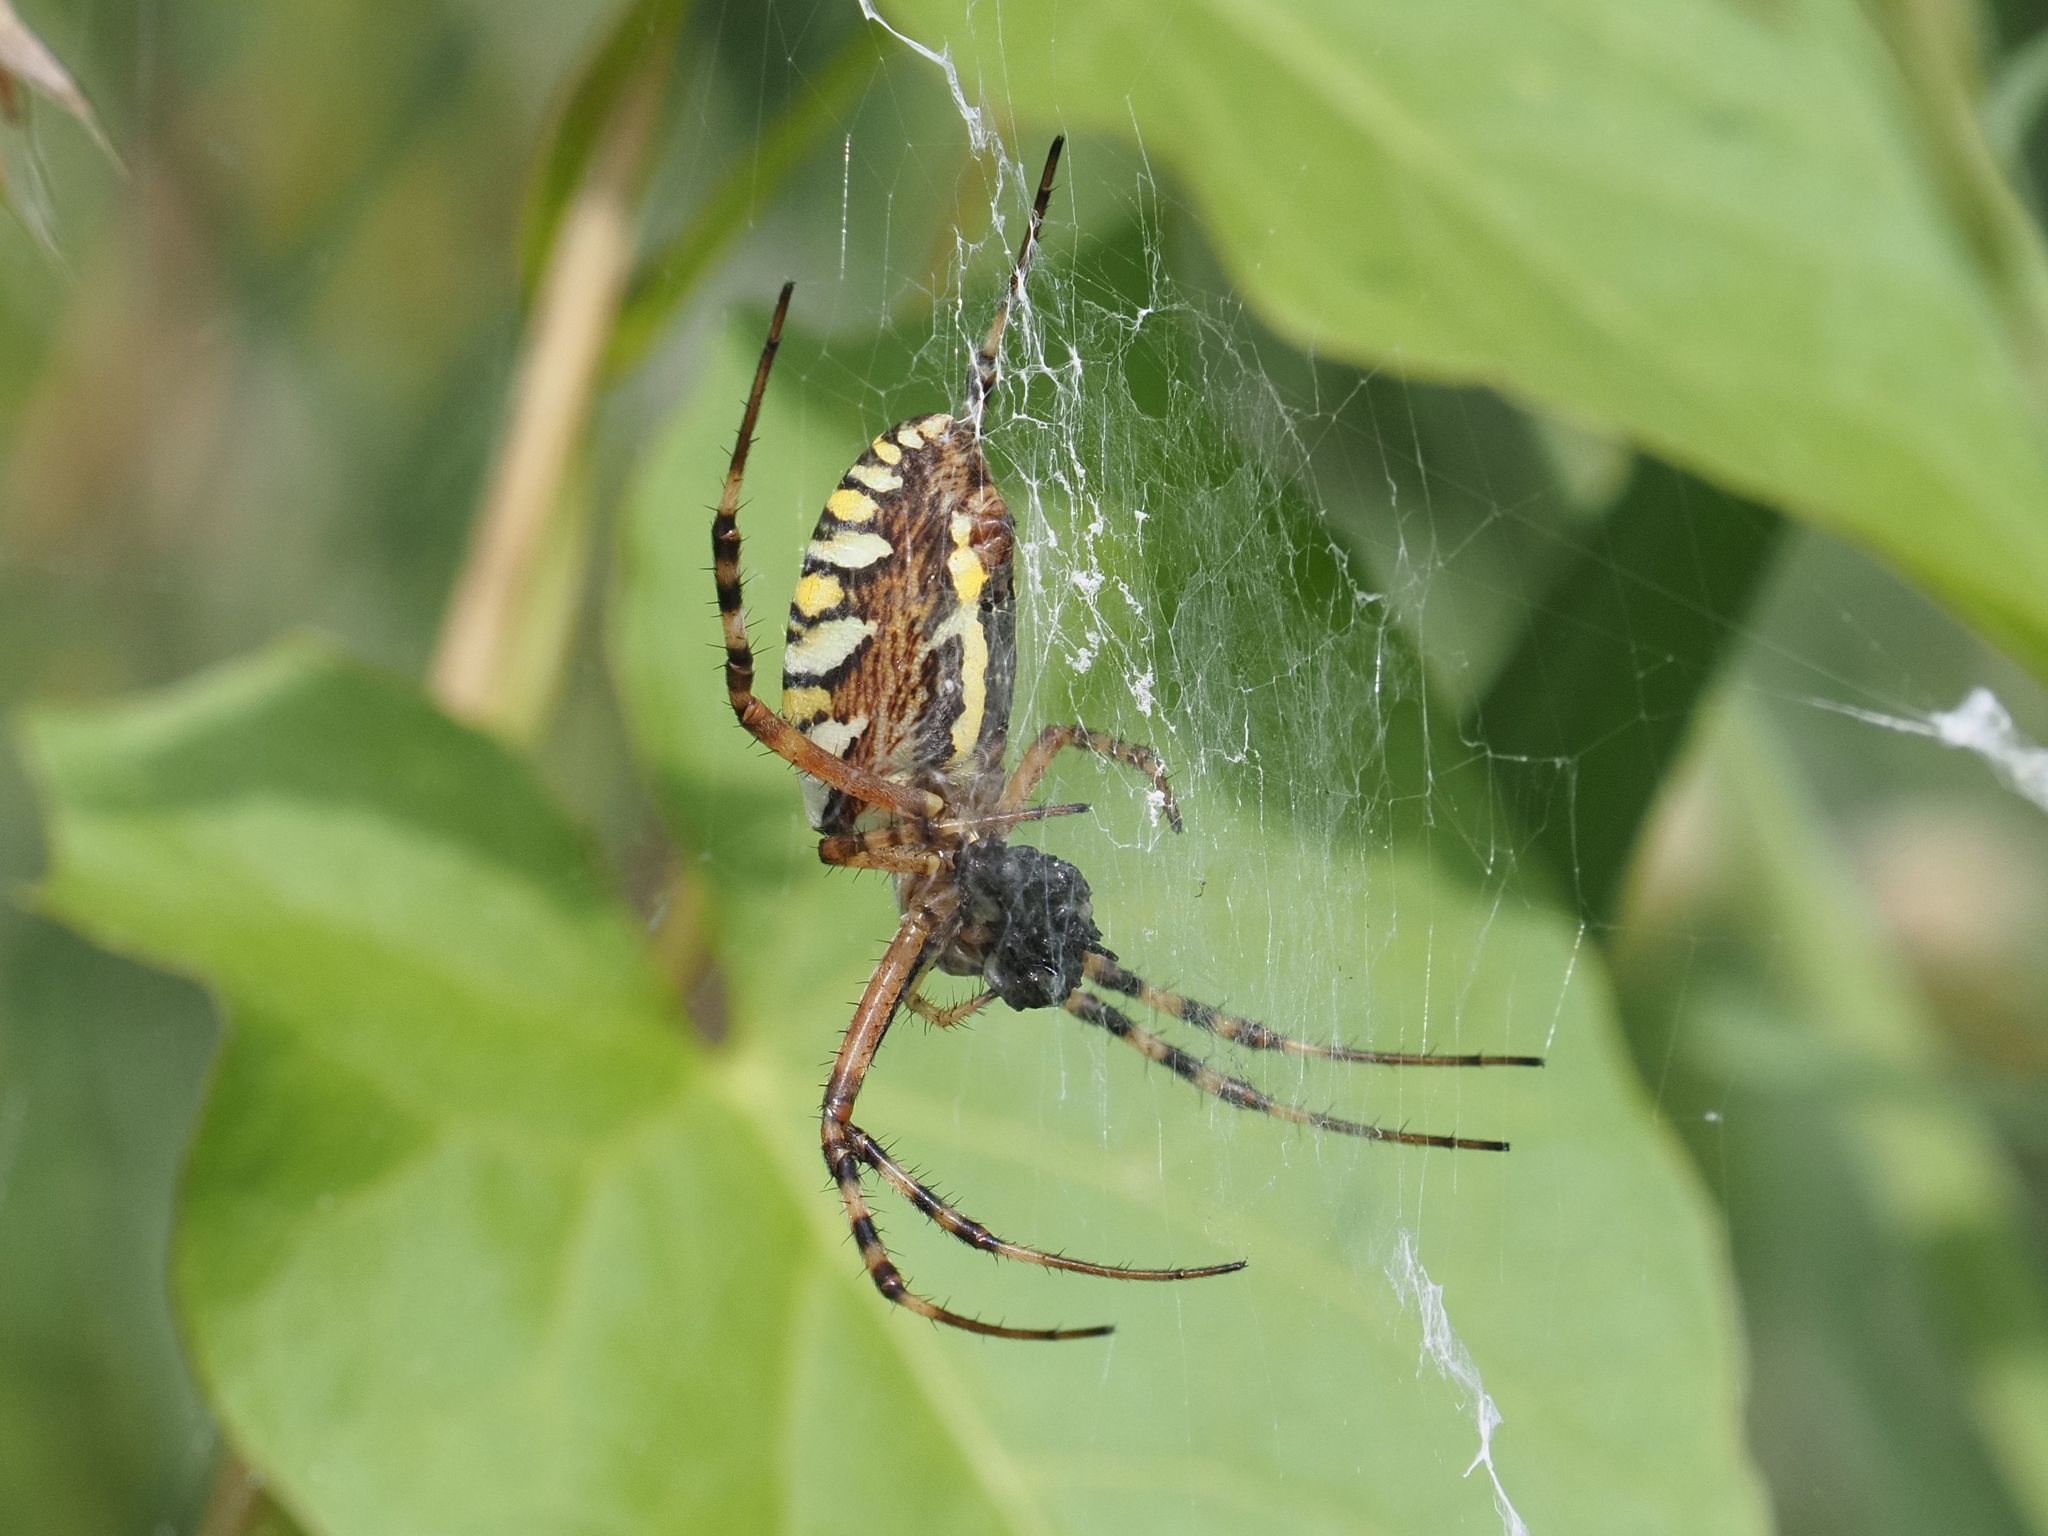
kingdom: Animalia
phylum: Arthropoda
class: Arachnida
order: Araneae
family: Araneidae
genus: Argiope
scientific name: Argiope bruennichi
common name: Wasp spider
